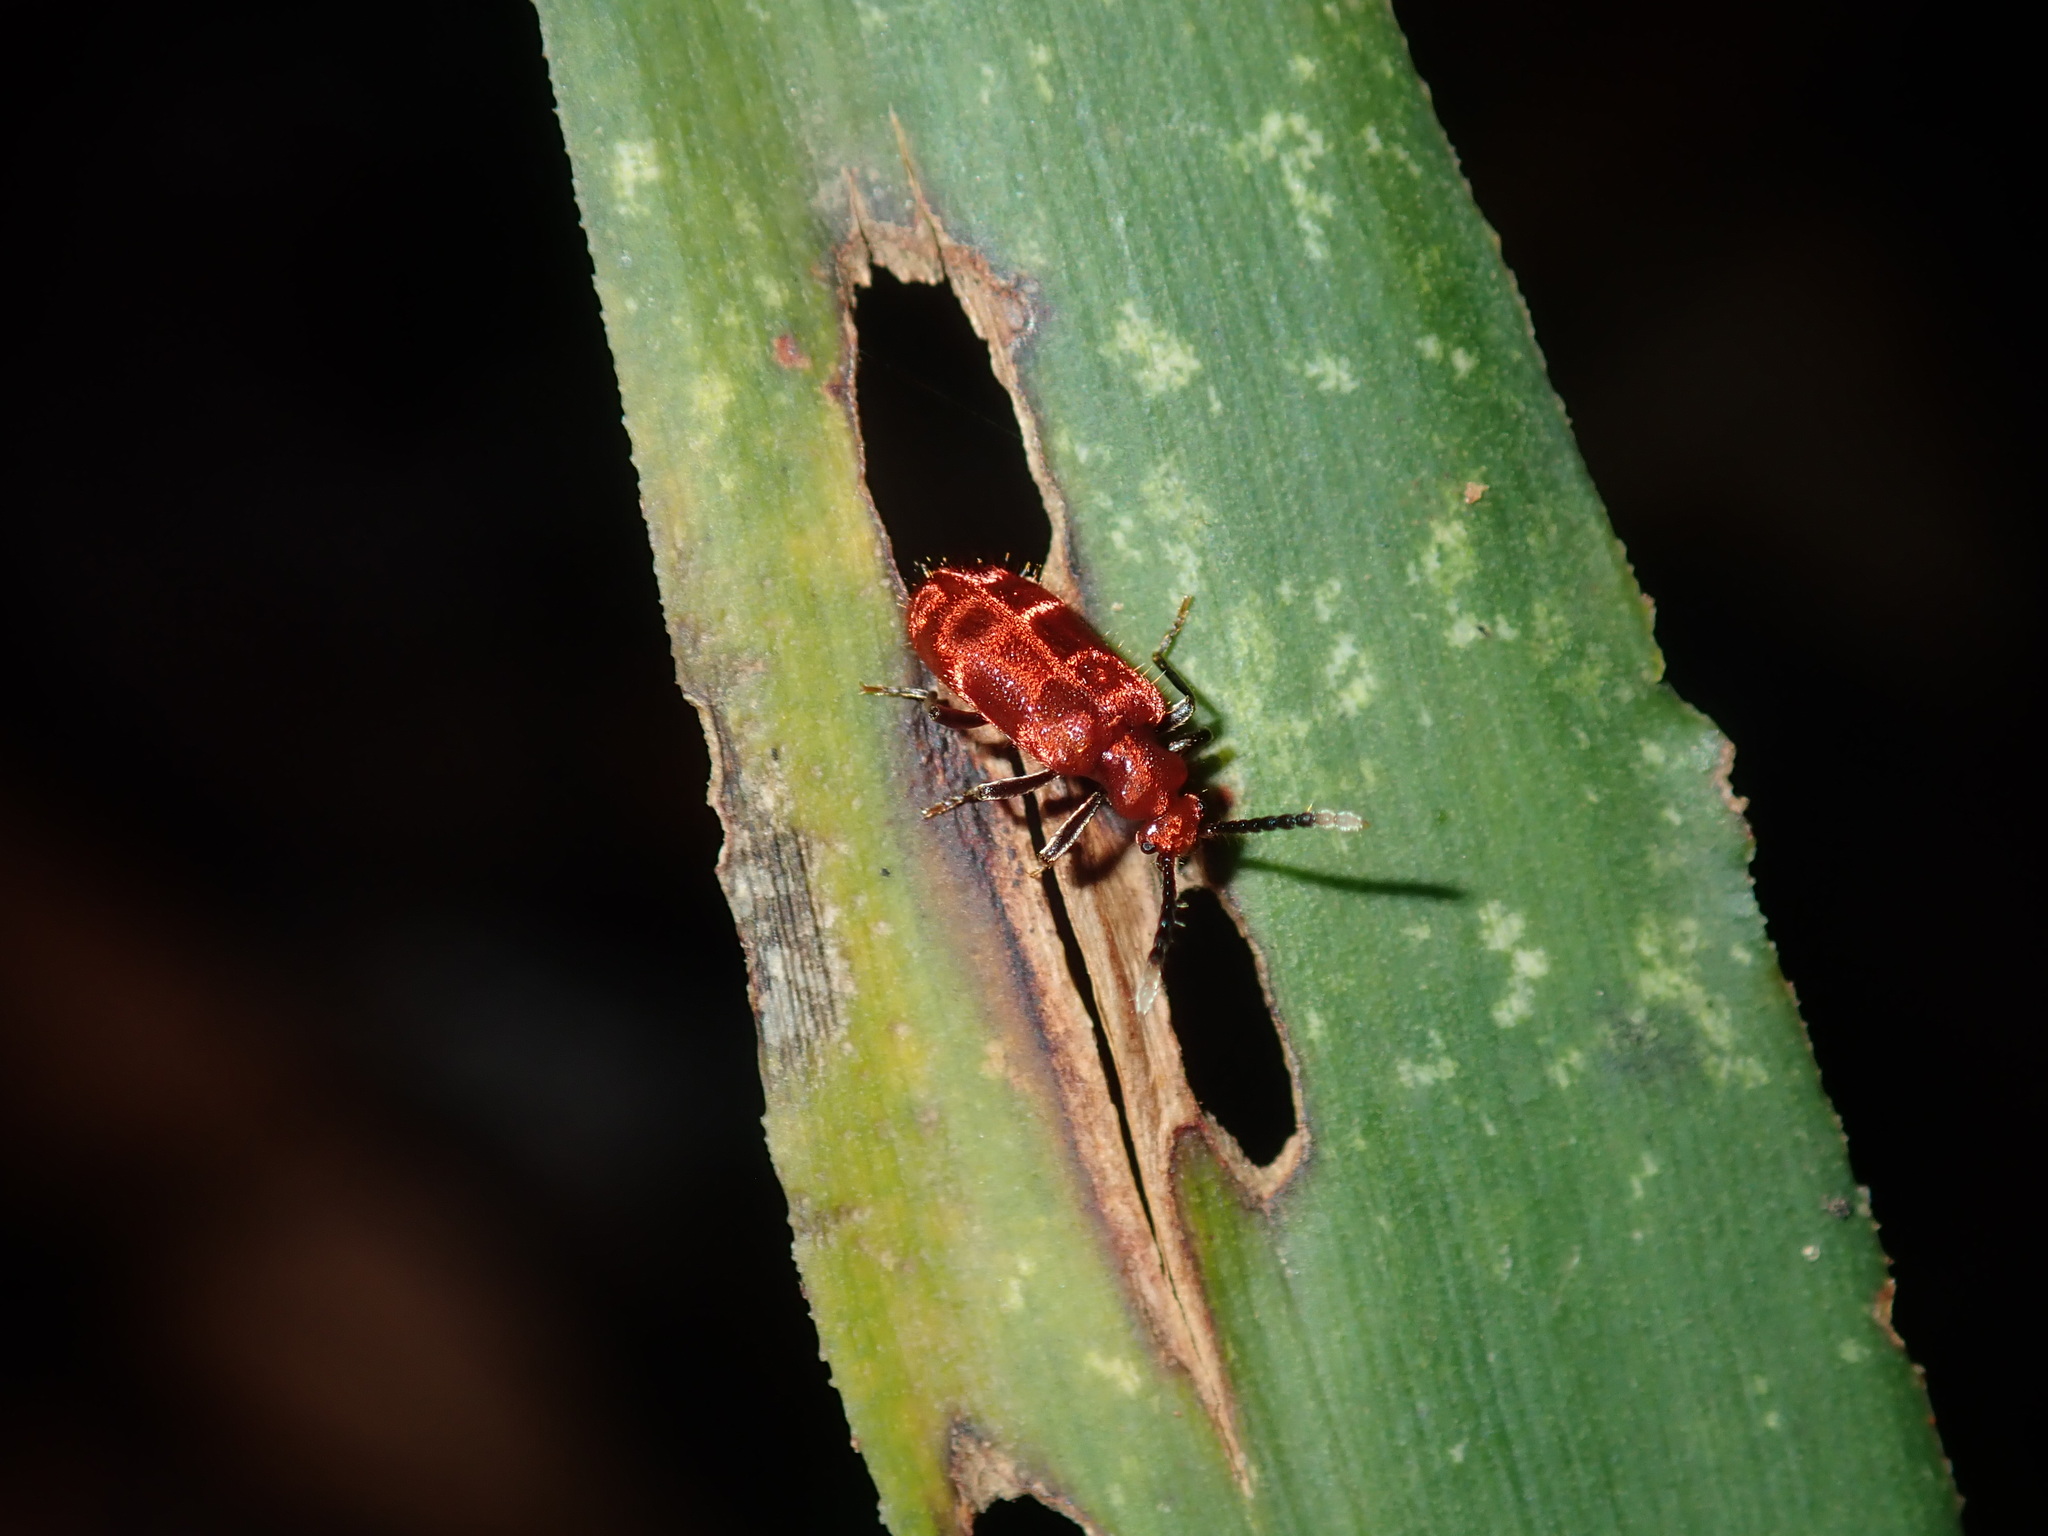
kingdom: Animalia
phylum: Arthropoda
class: Insecta
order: Coleoptera
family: Anthicidae
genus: Lemodes
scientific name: Lemodes
